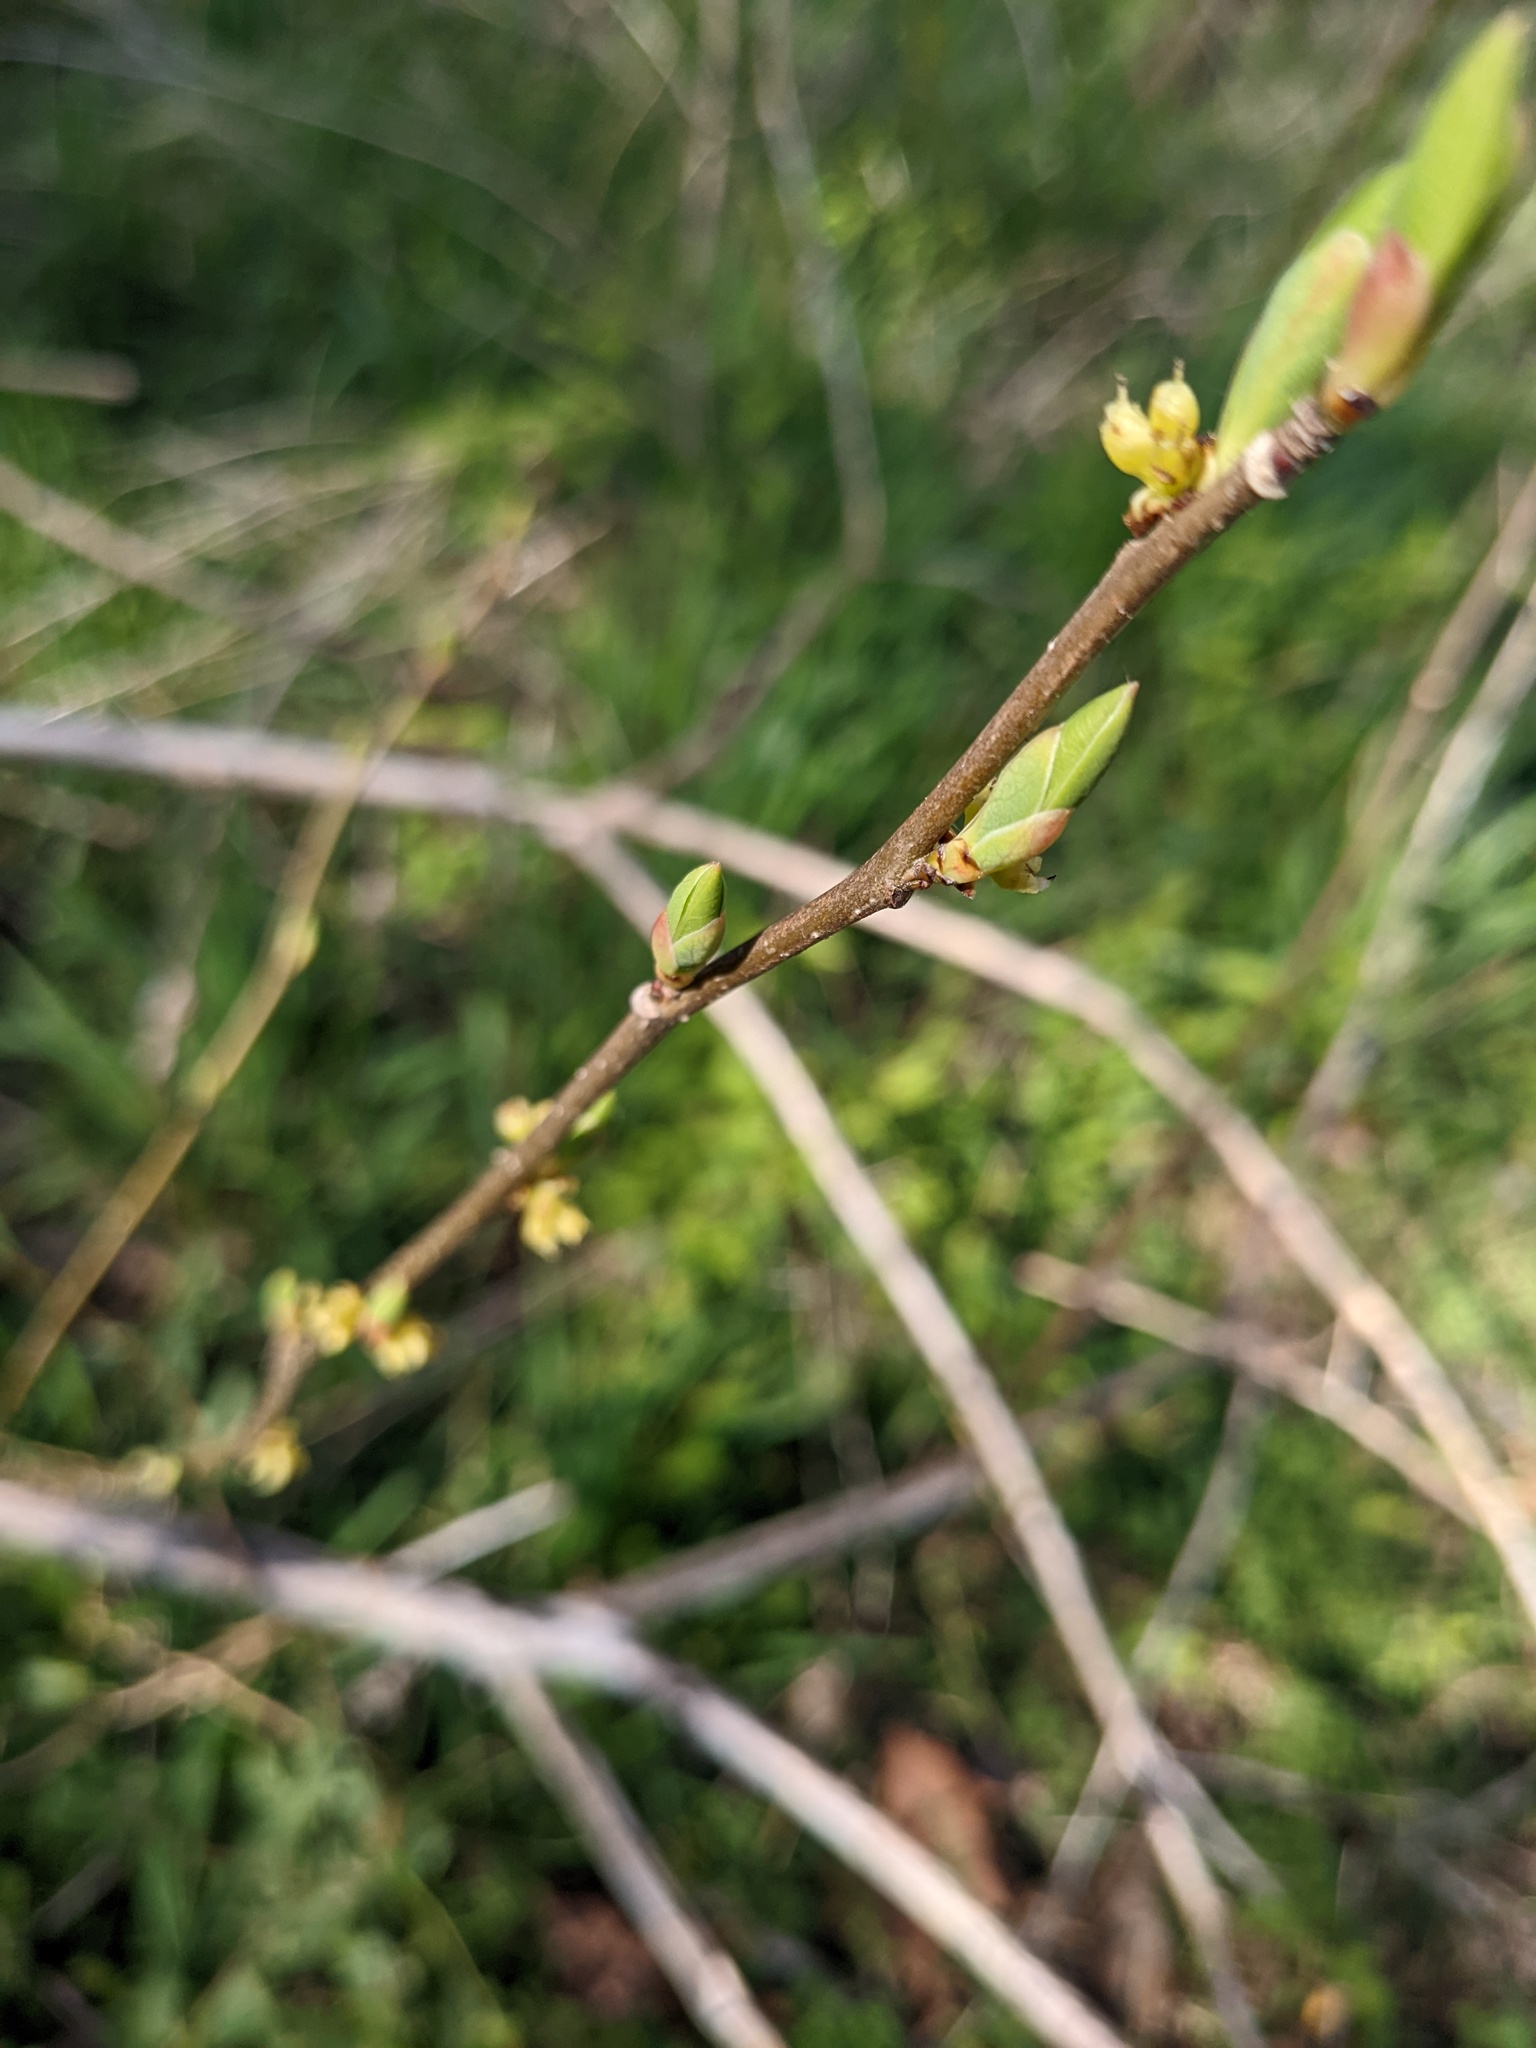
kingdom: Plantae
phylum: Tracheophyta
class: Magnoliopsida
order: Laurales
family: Lauraceae
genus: Lindera
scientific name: Lindera benzoin
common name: Spicebush
